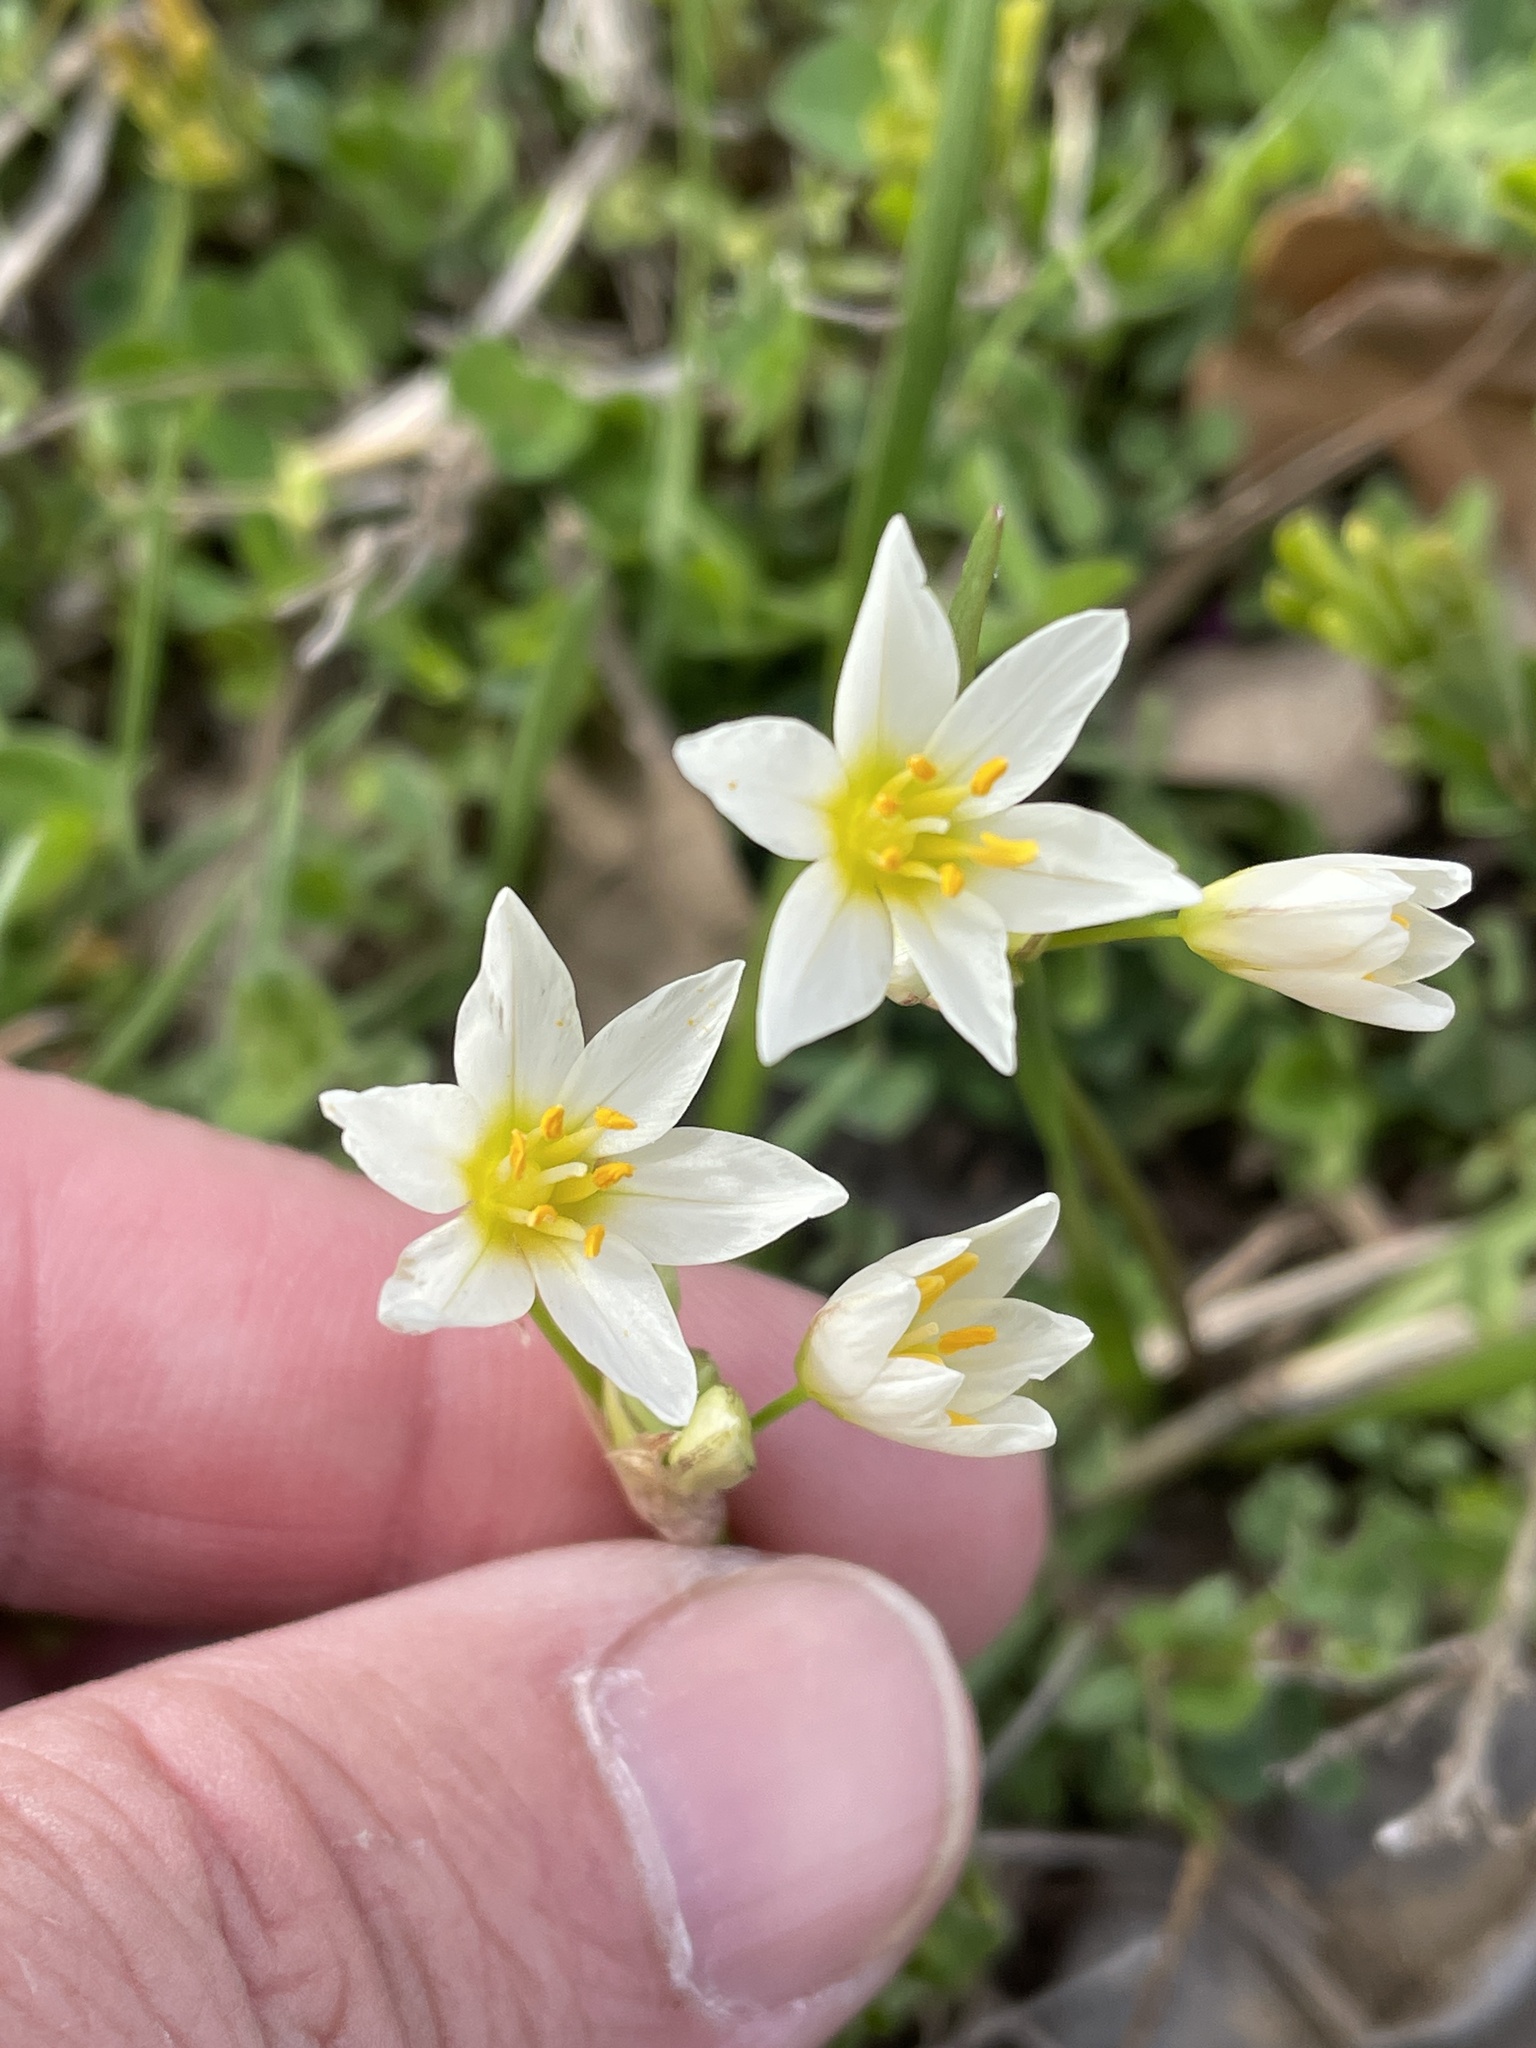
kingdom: Plantae
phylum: Tracheophyta
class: Liliopsida
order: Asparagales
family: Amaryllidaceae
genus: Nothoscordum
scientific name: Nothoscordum bivalve
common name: Crow-poison
